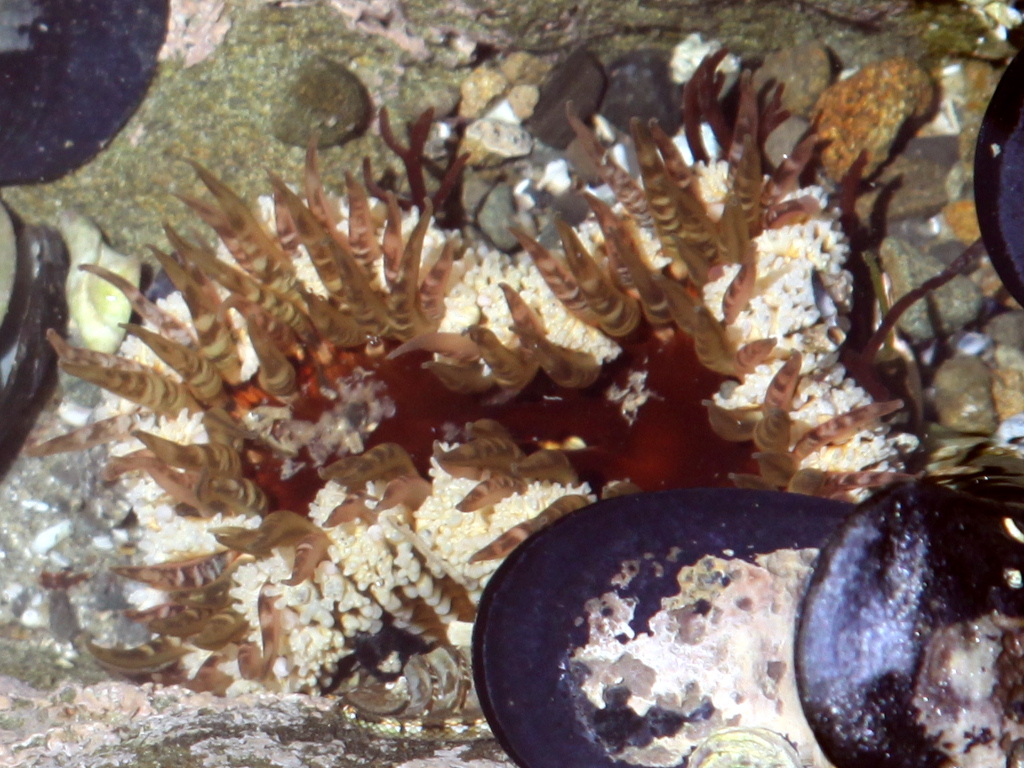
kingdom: Animalia
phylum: Cnidaria
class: Anthozoa
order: Actiniaria
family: Actiniidae
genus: Oulactis
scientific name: Oulactis muscosa
